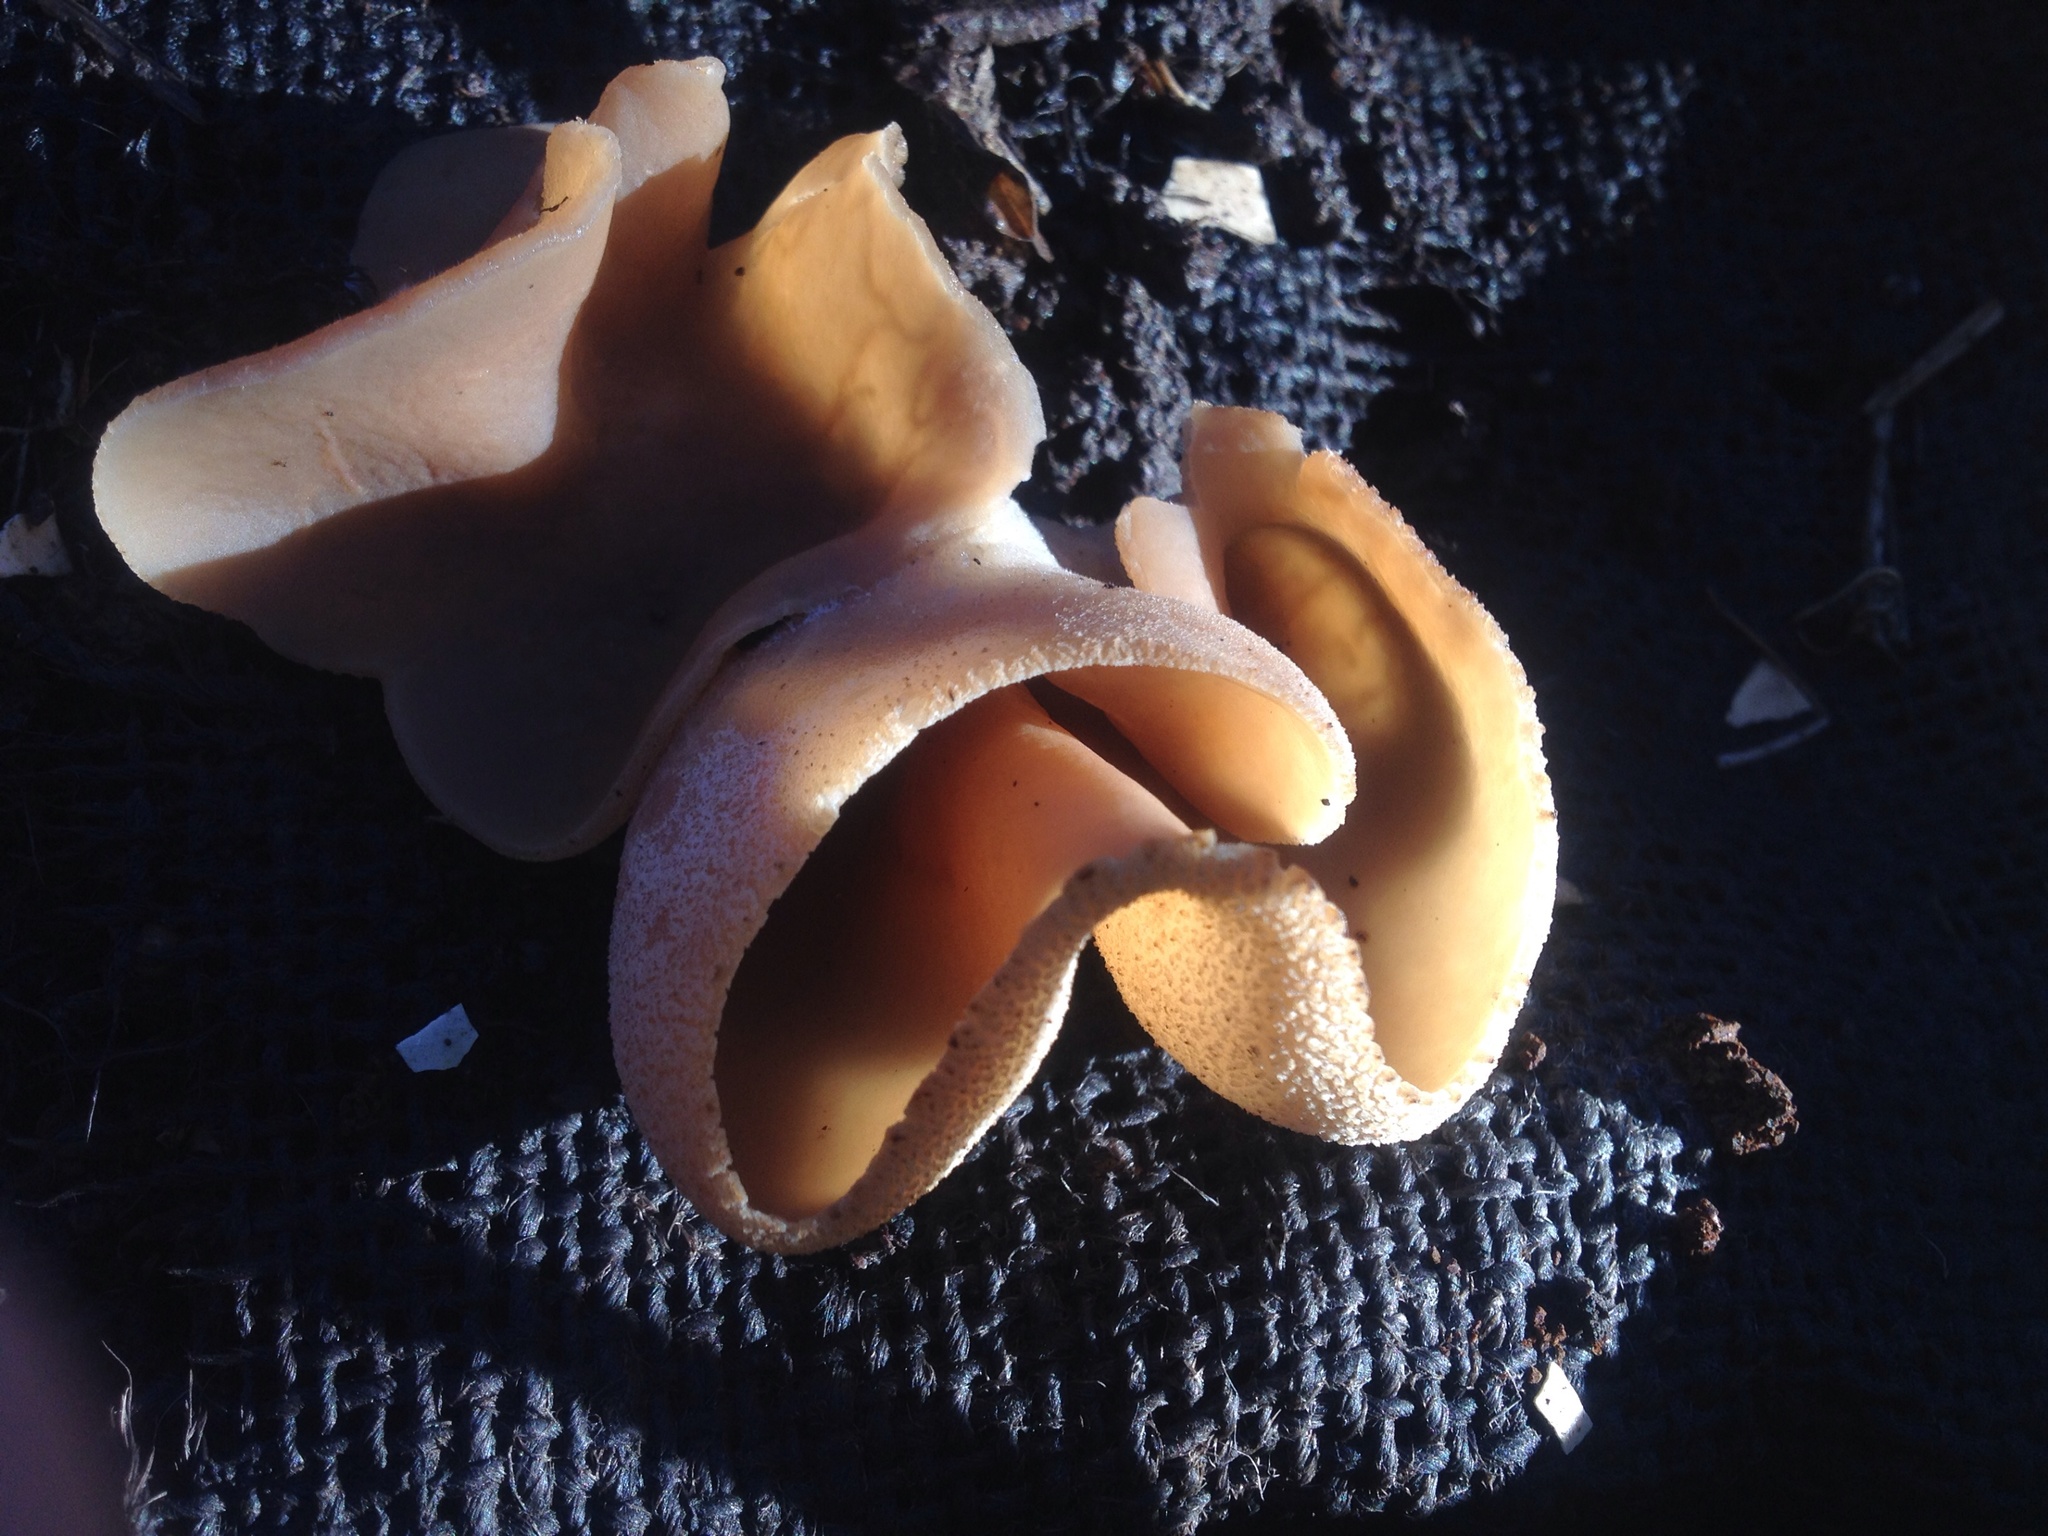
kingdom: Fungi
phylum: Ascomycota
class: Pezizomycetes
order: Pezizales
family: Pezizaceae
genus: Peziza
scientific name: Peziza varia
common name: Layered cup
